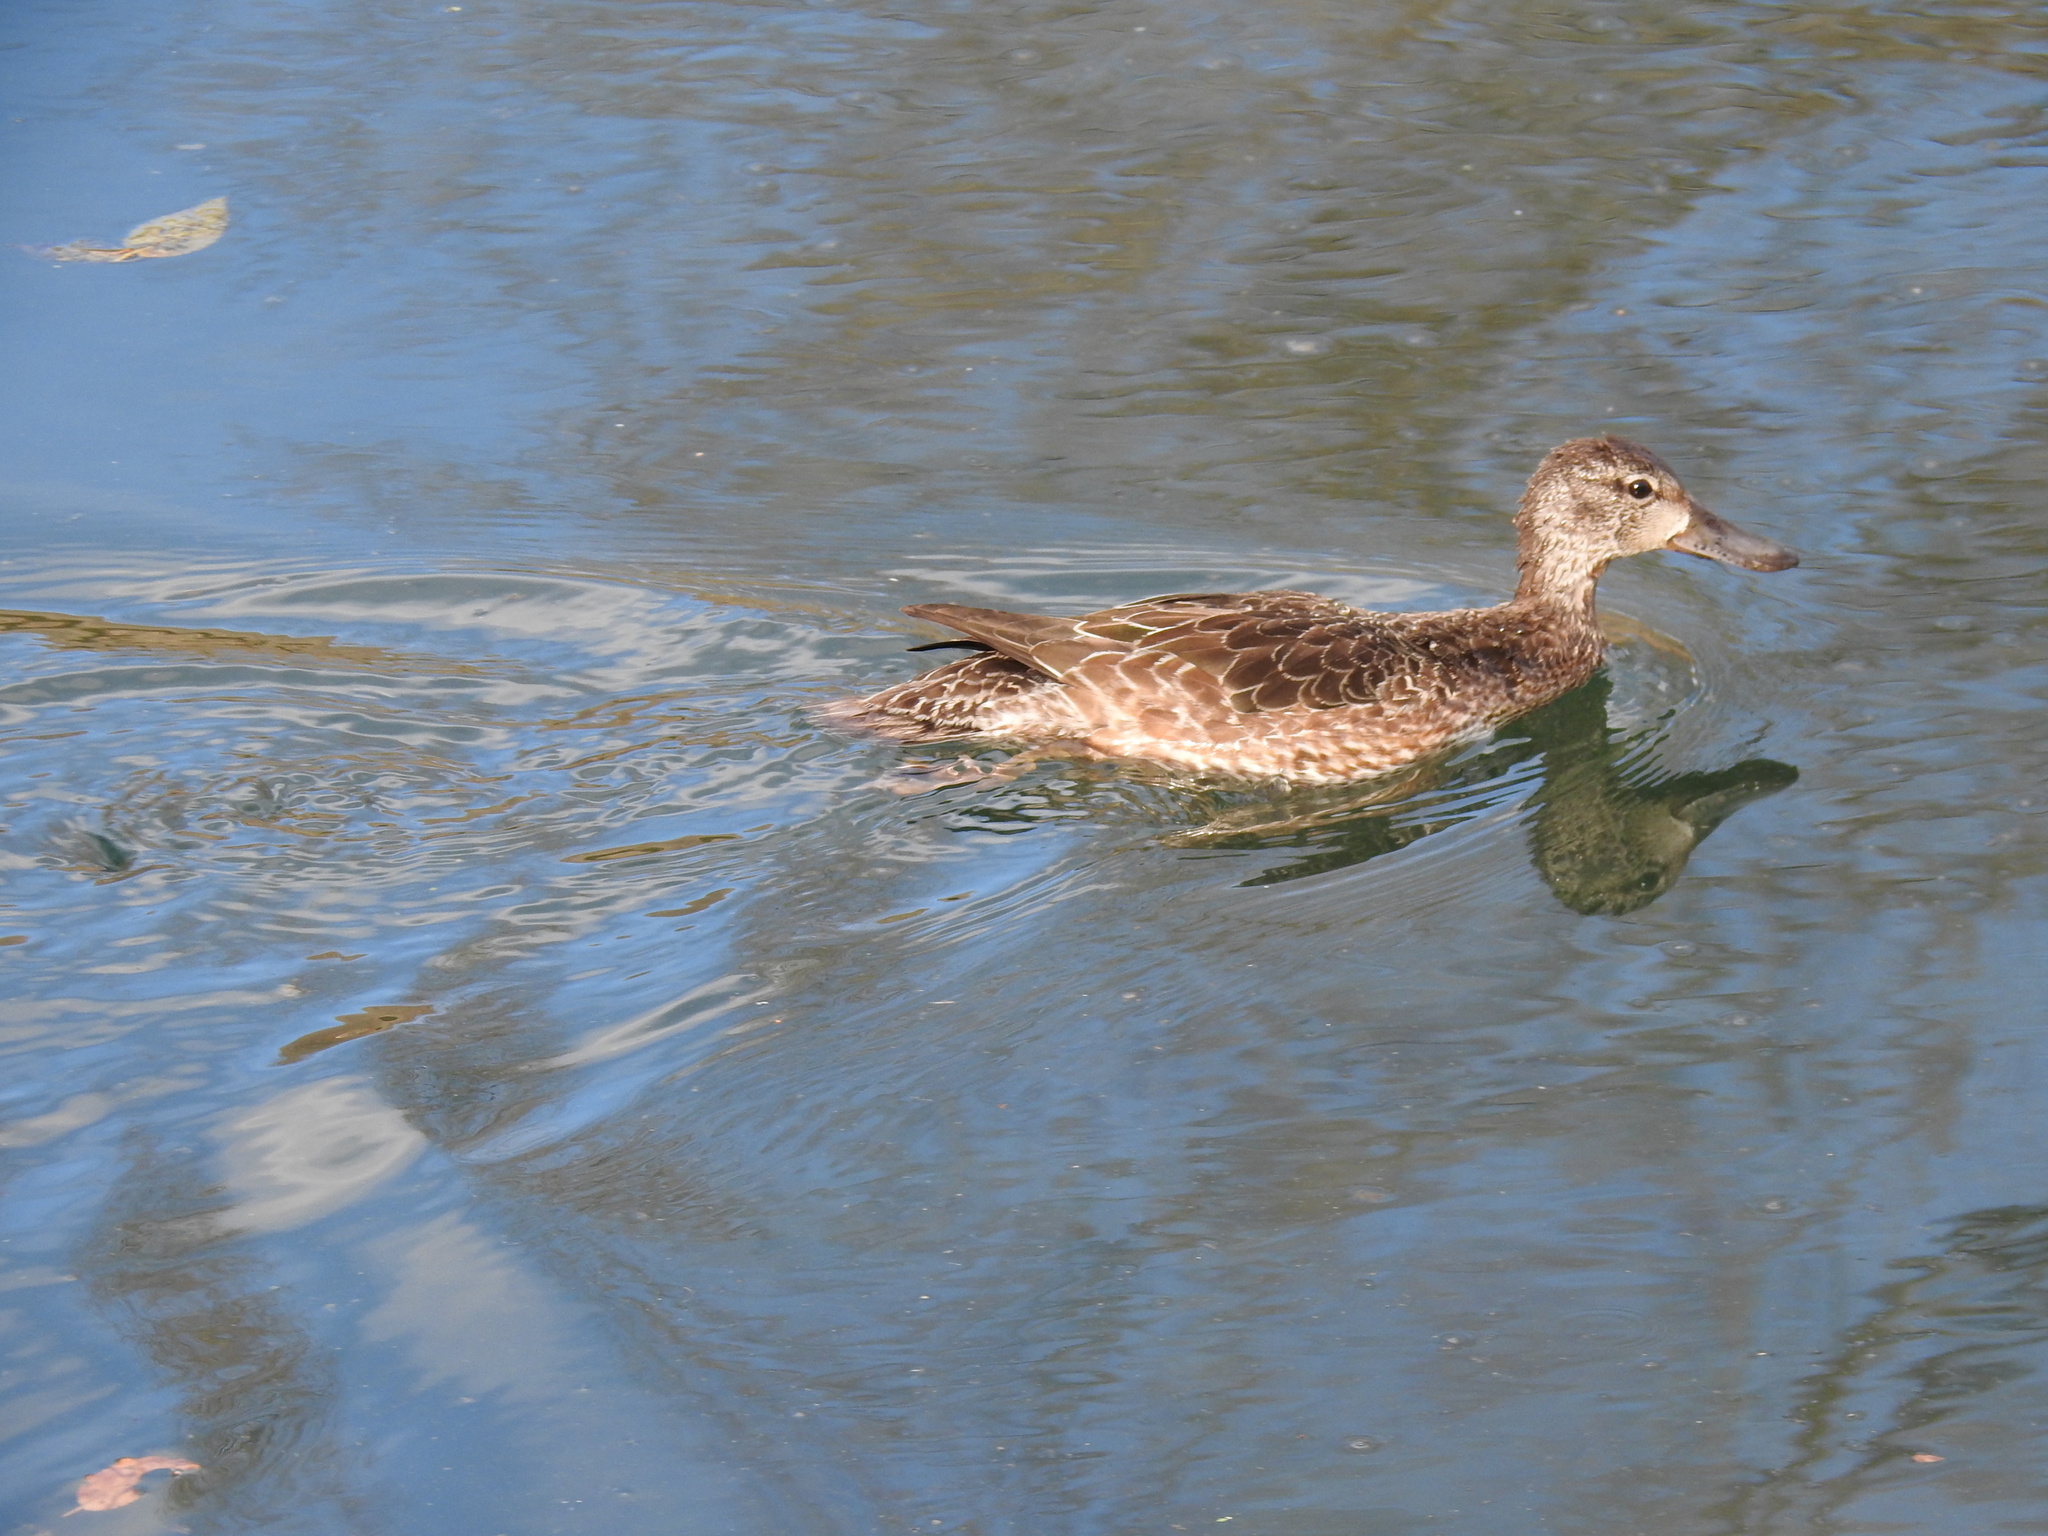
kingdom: Animalia
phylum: Chordata
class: Aves
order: Anseriformes
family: Anatidae
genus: Spatula
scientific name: Spatula discors
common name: Blue-winged teal
